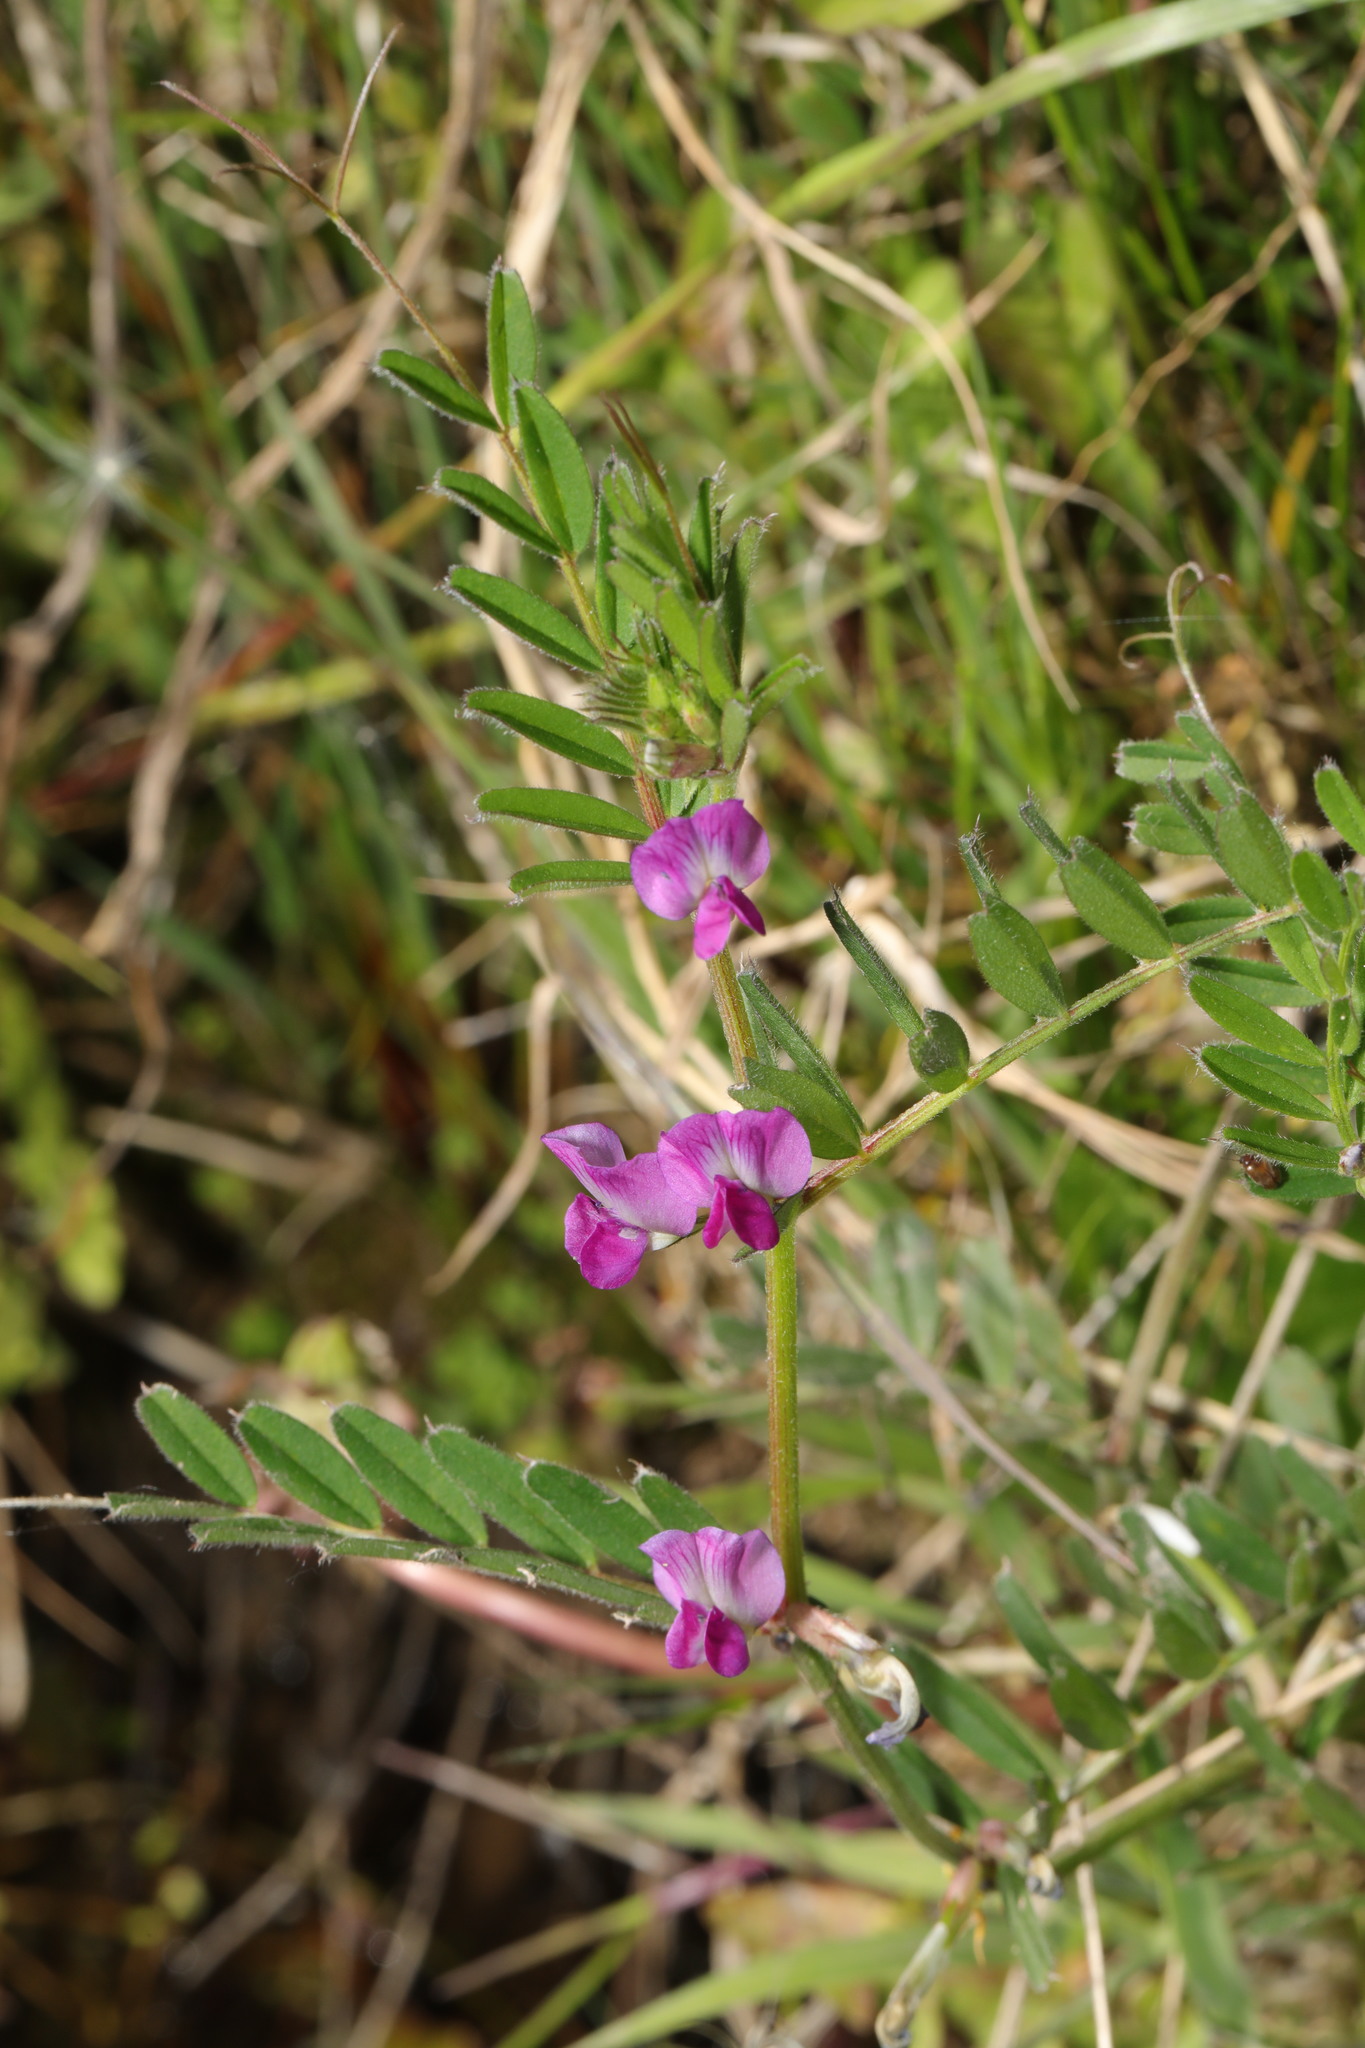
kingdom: Plantae
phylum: Tracheophyta
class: Magnoliopsida
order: Fabales
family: Fabaceae
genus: Vicia
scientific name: Vicia sativa
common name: Garden vetch
